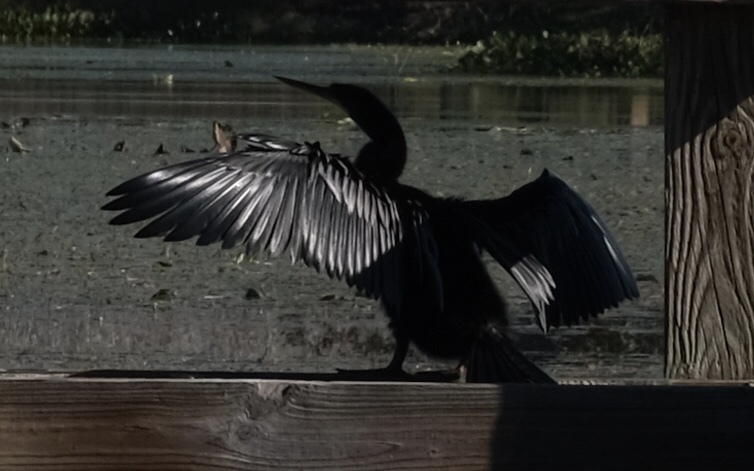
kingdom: Animalia
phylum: Chordata
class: Aves
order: Suliformes
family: Anhingidae
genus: Anhinga
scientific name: Anhinga anhinga
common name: Anhinga
